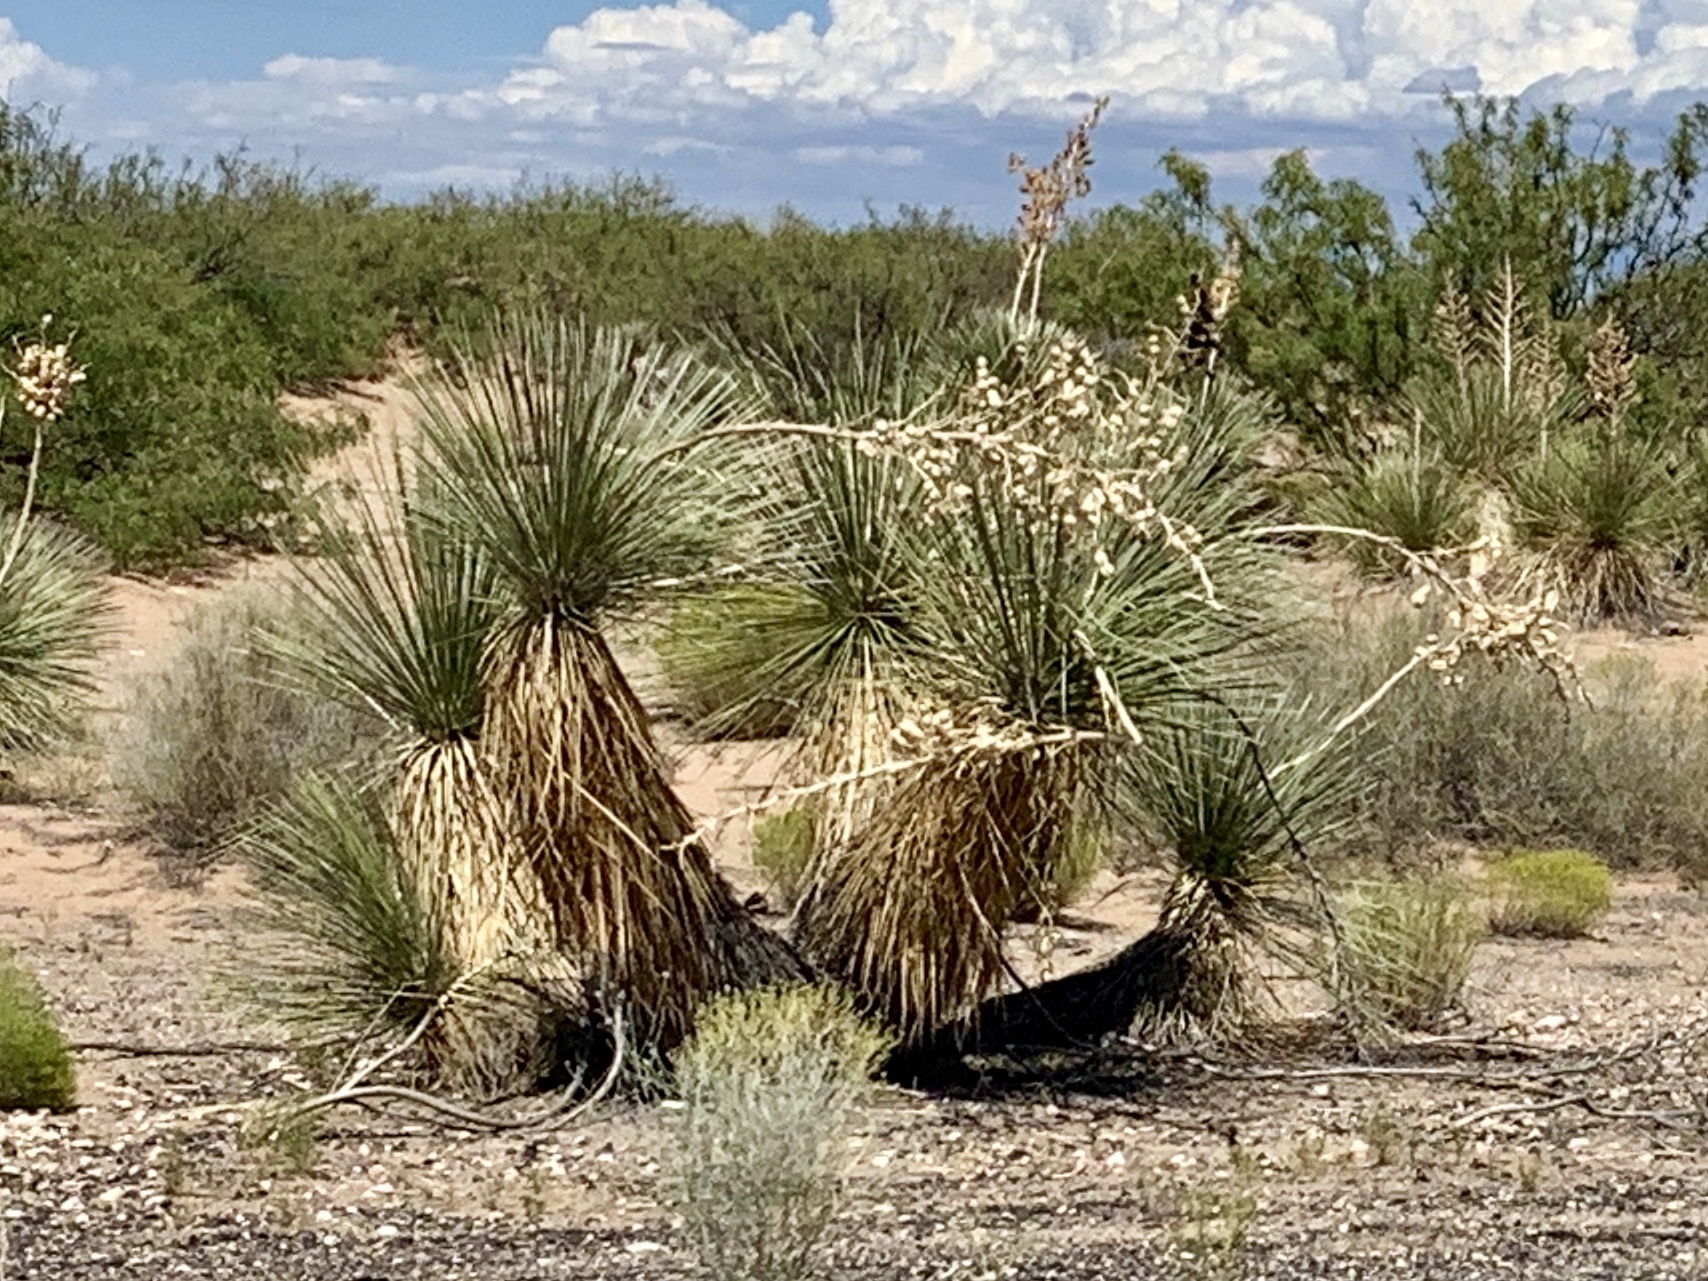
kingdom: Plantae
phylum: Tracheophyta
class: Liliopsida
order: Asparagales
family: Asparagaceae
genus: Yucca
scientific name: Yucca elata
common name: Palmella
